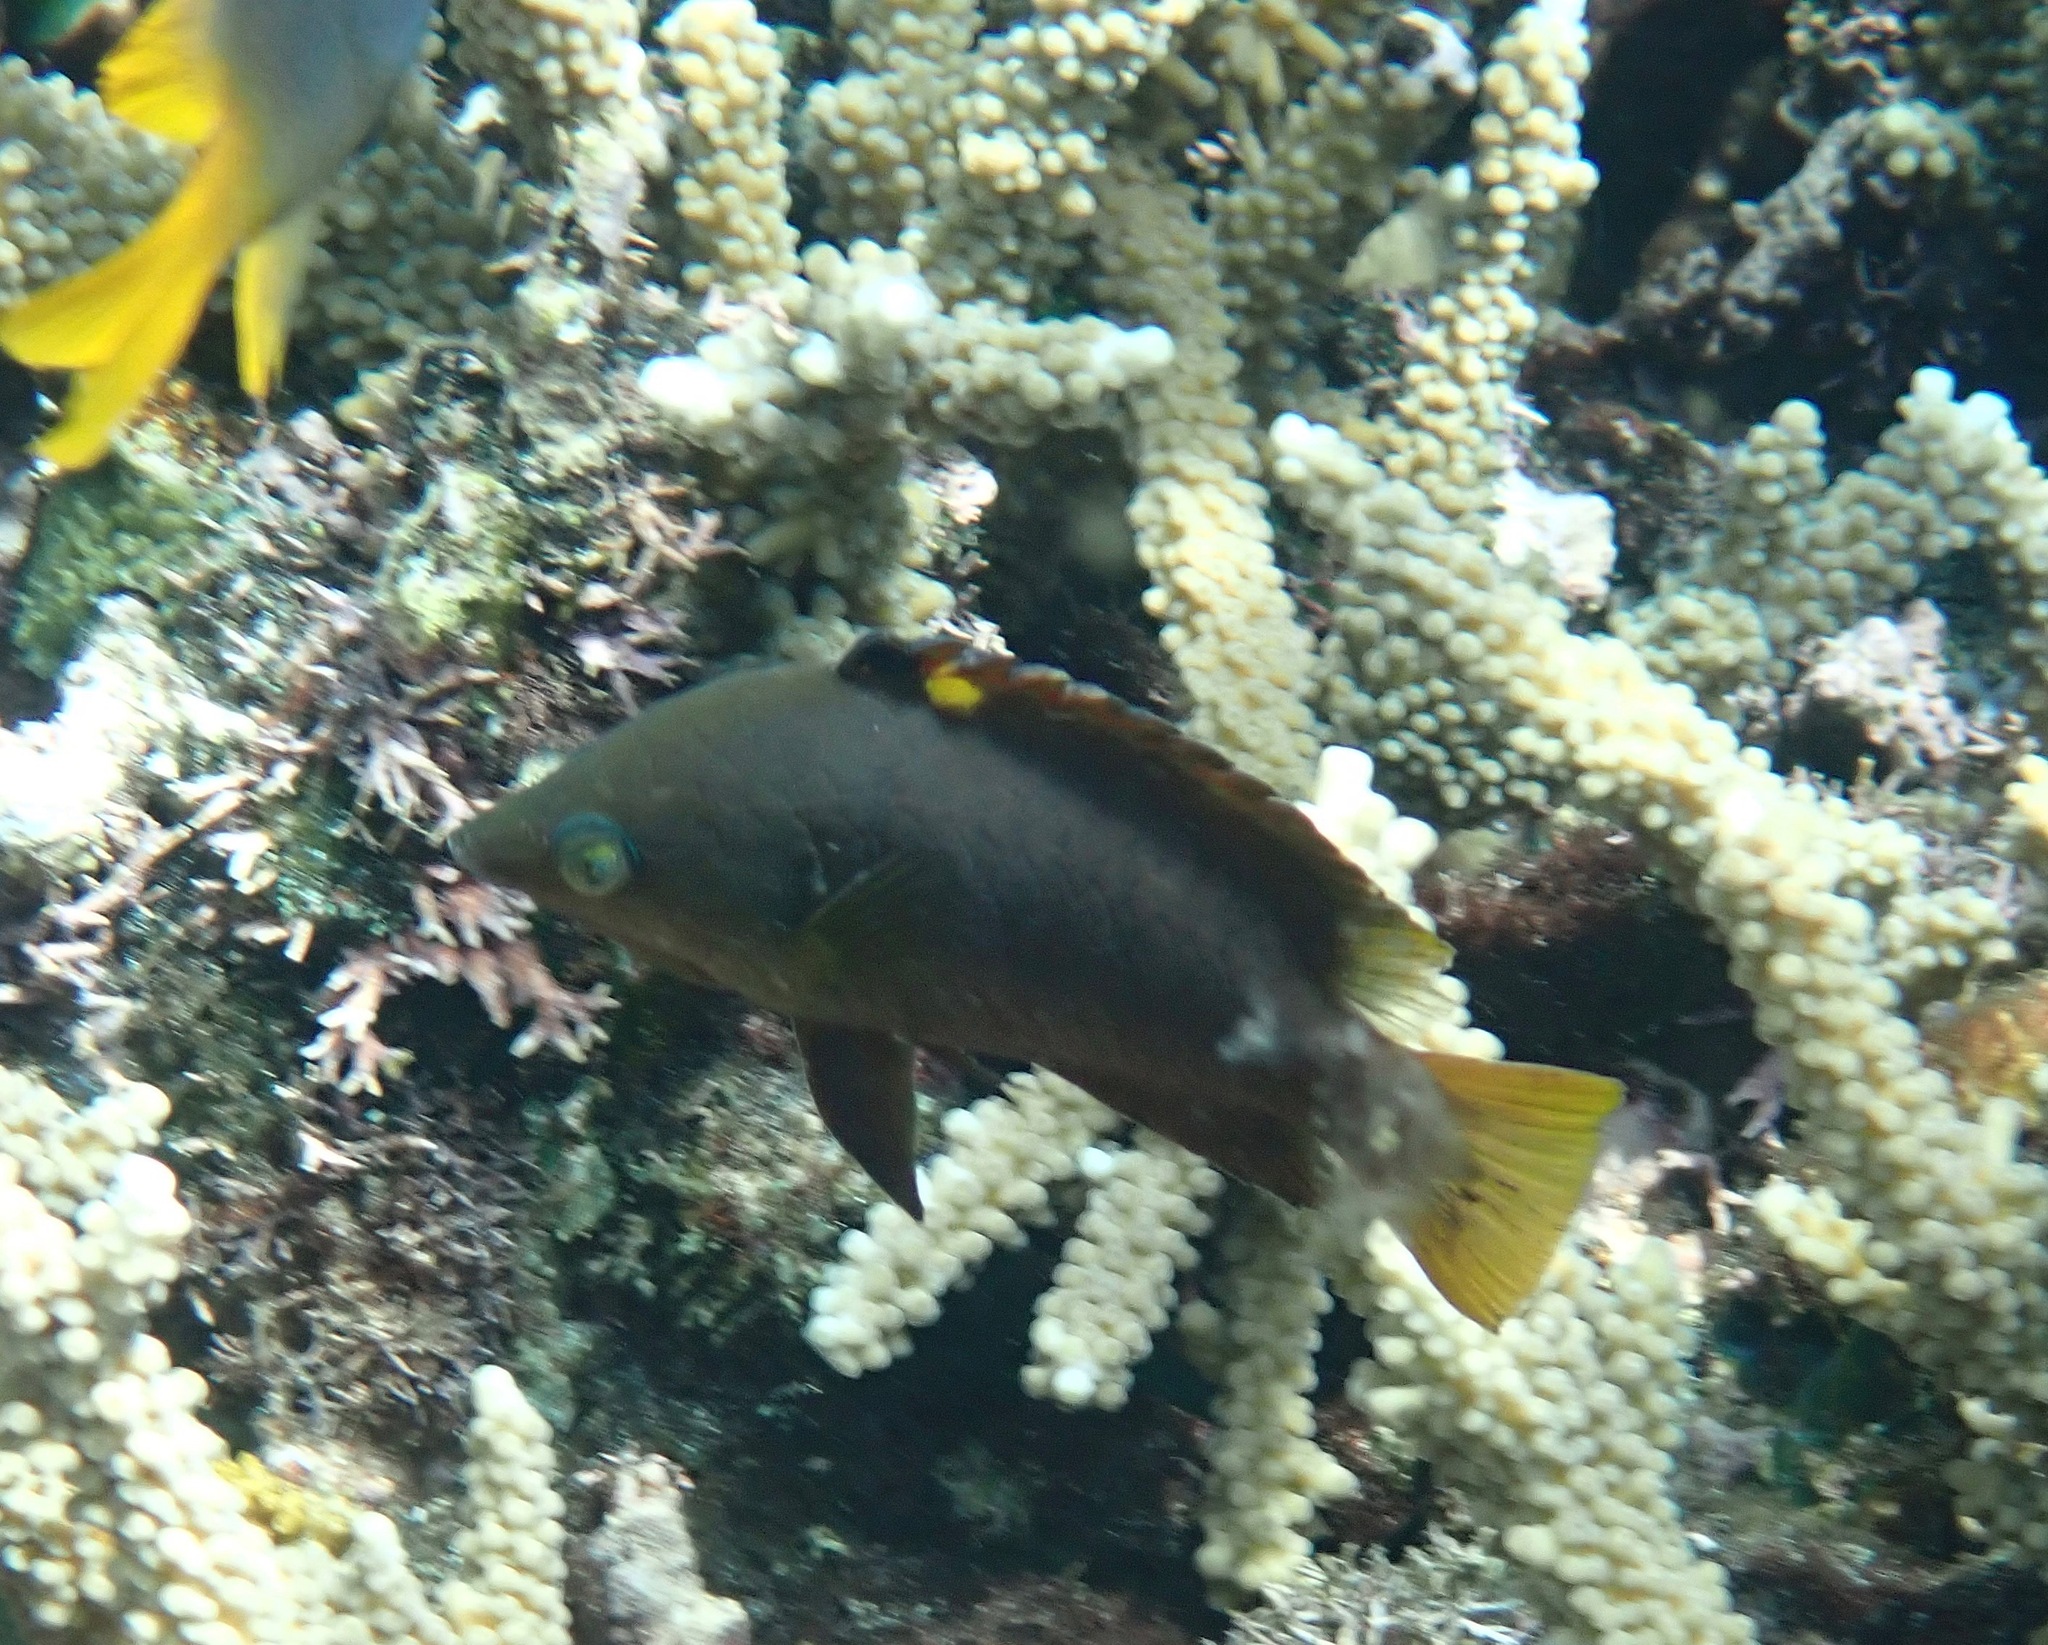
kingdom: Animalia
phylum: Chordata
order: Perciformes
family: Labridae
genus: Epibulus
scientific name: Epibulus brevis
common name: Dwarf slingjaw wrasse
